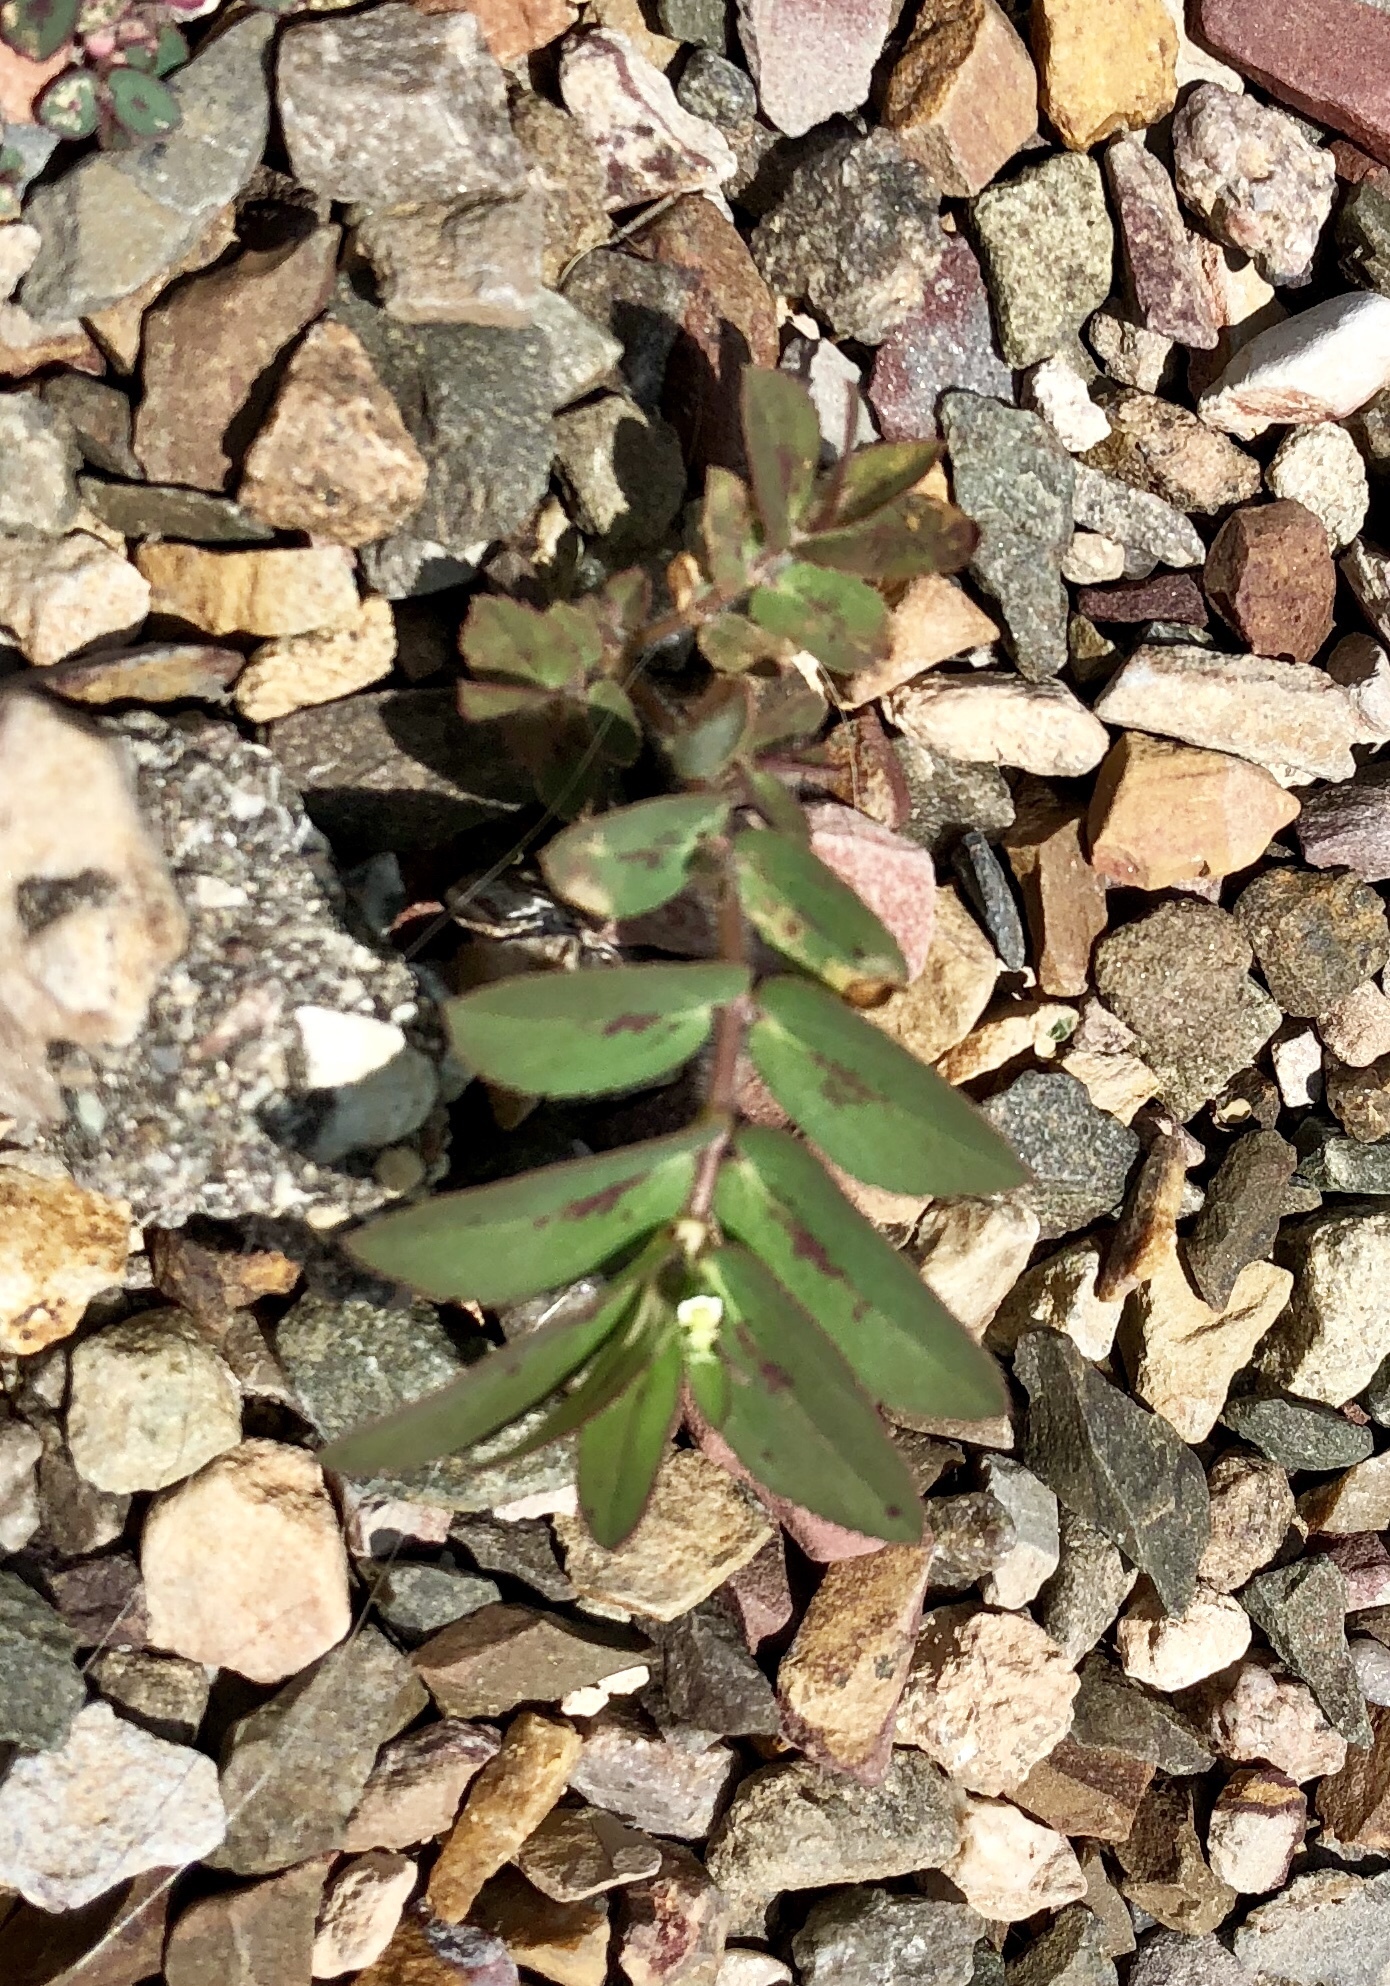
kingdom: Plantae
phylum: Tracheophyta
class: Magnoliopsida
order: Malpighiales
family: Euphorbiaceae
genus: Euphorbia
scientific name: Euphorbia hyssopifolia
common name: Hyssopleaf sandmat
